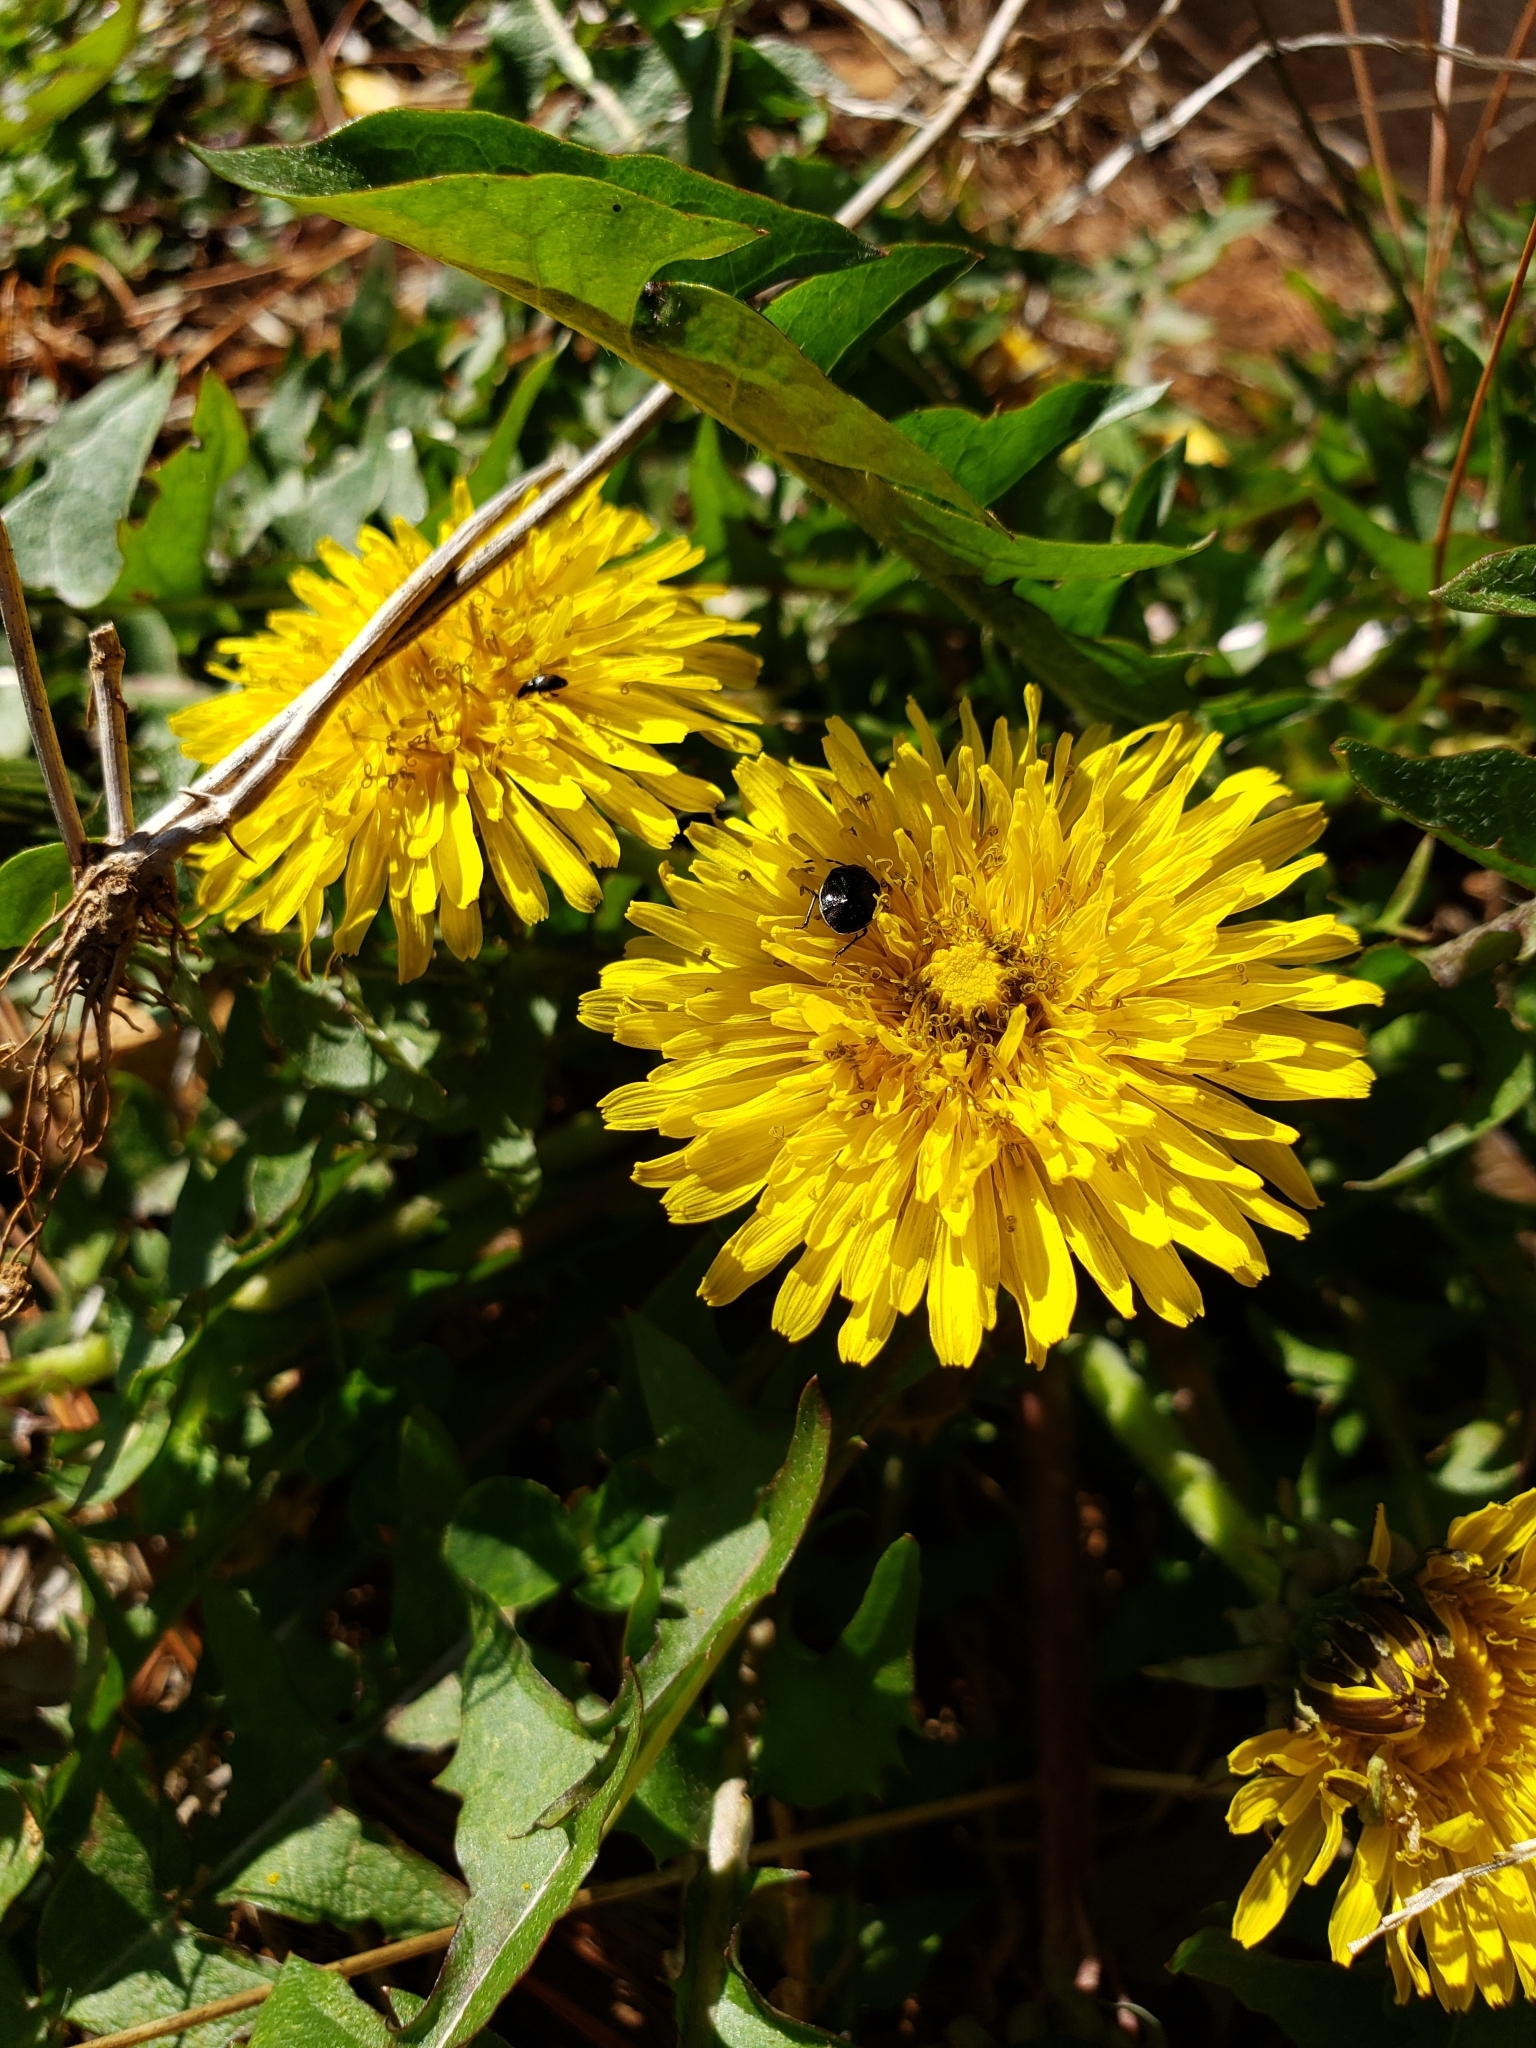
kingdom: Animalia
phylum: Arthropoda
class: Insecta
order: Hemiptera
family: Cydnidae
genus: Sehirus
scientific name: Sehirus cinctus
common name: White-margined burrower bug
